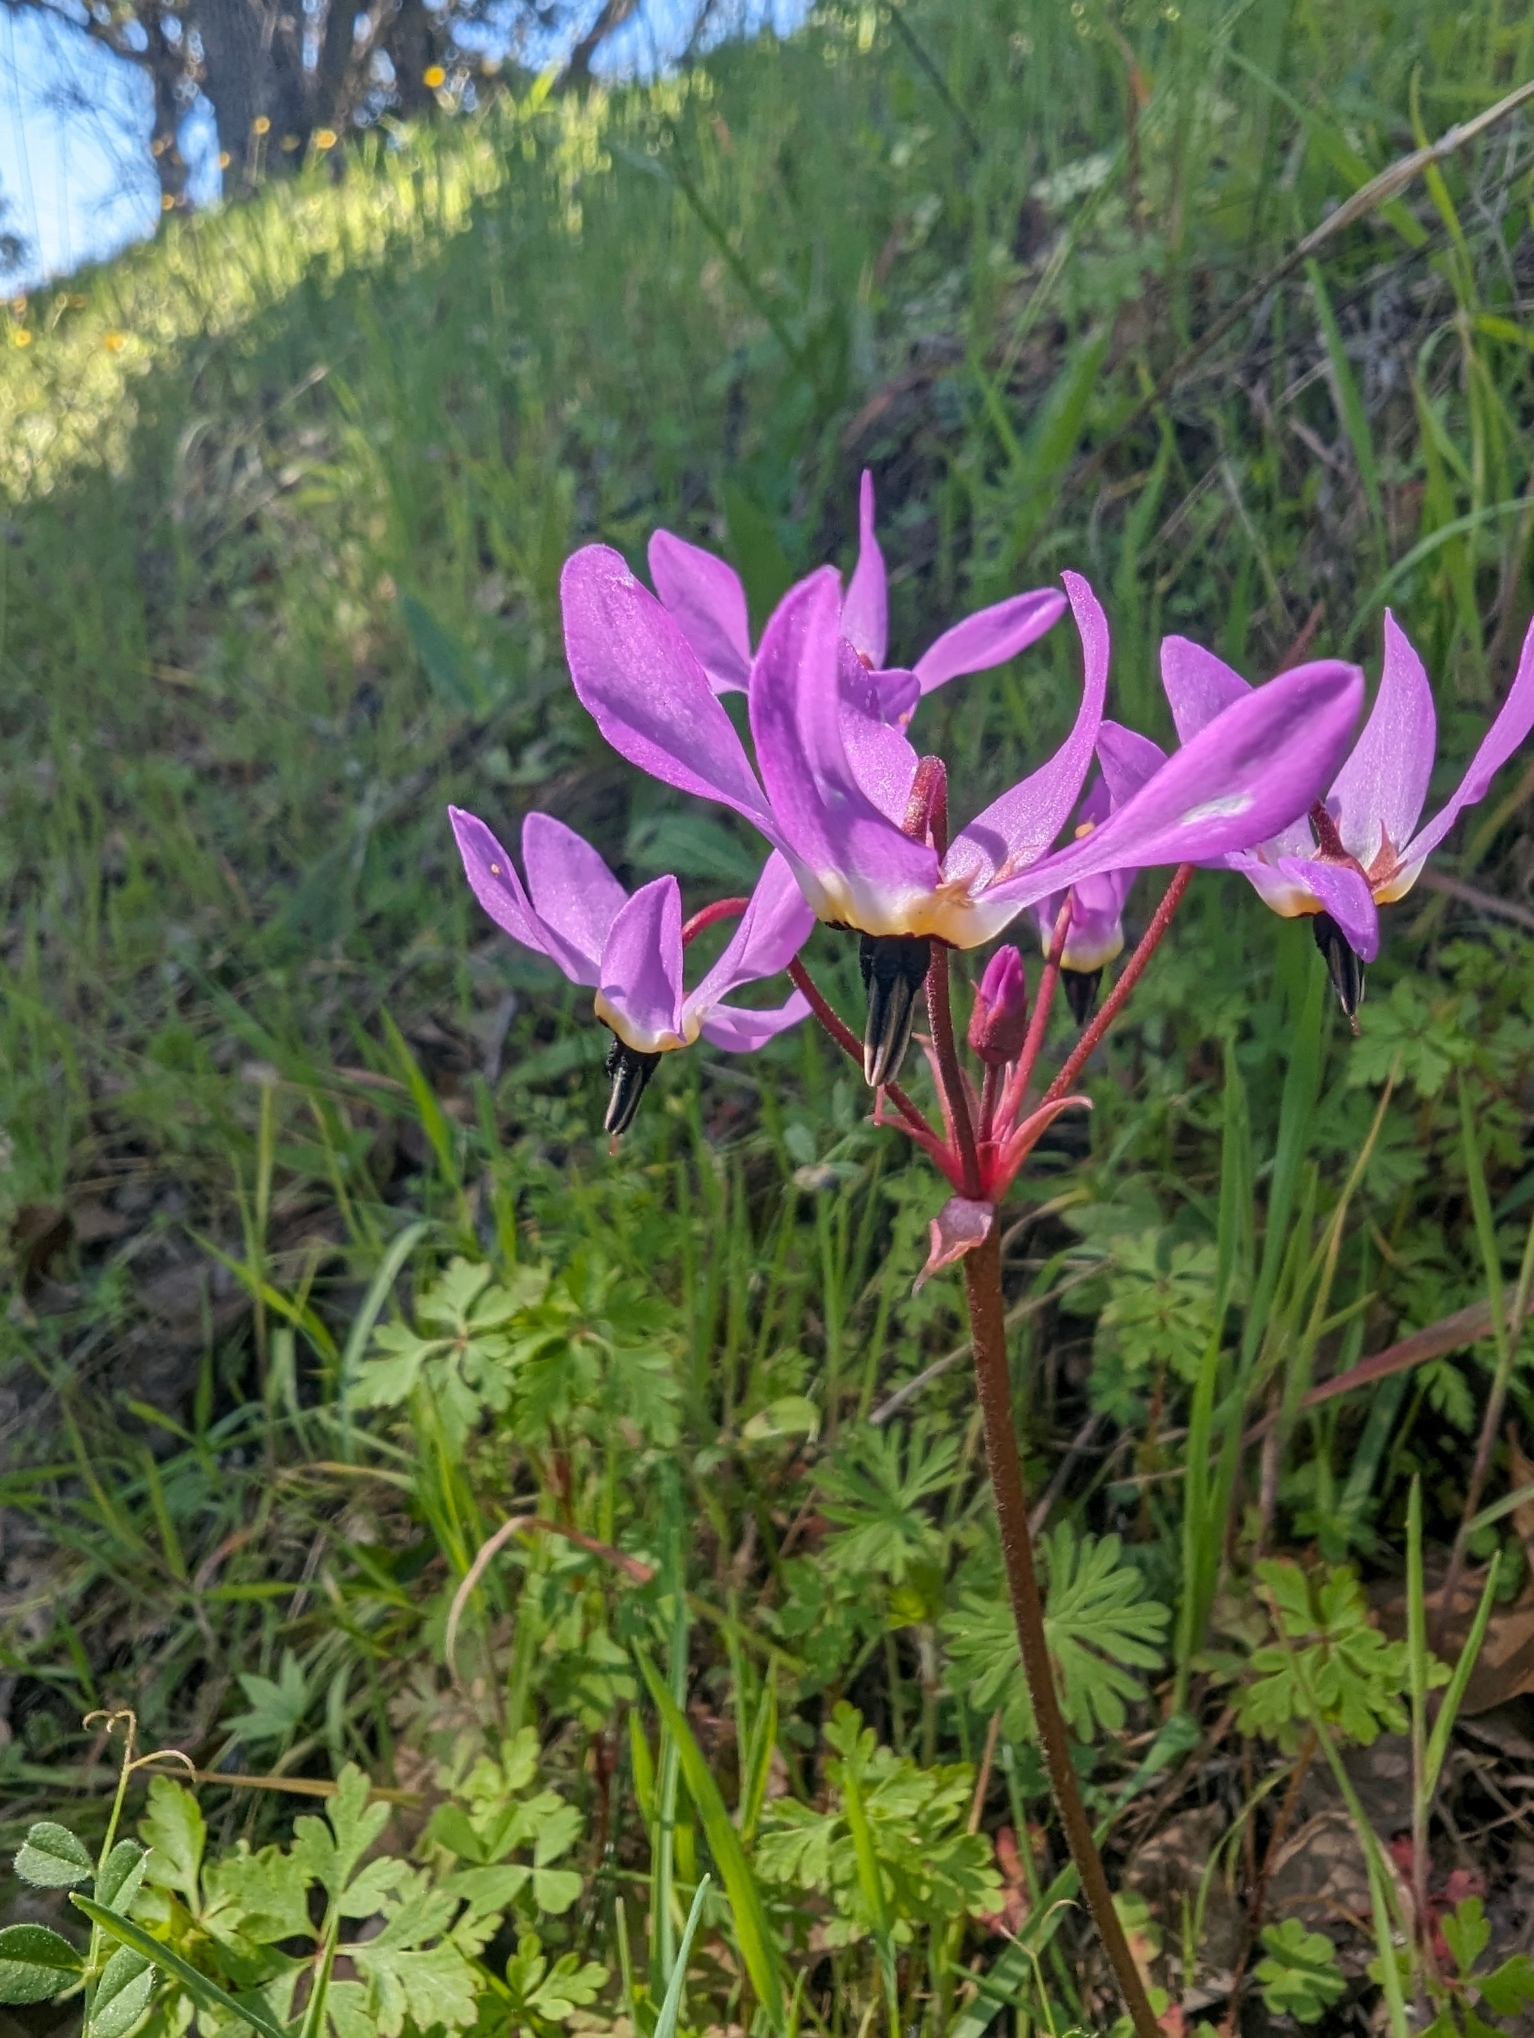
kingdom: Plantae
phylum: Tracheophyta
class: Magnoliopsida
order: Ericales
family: Primulaceae
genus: Dodecatheon
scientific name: Dodecatheon hendersonii
